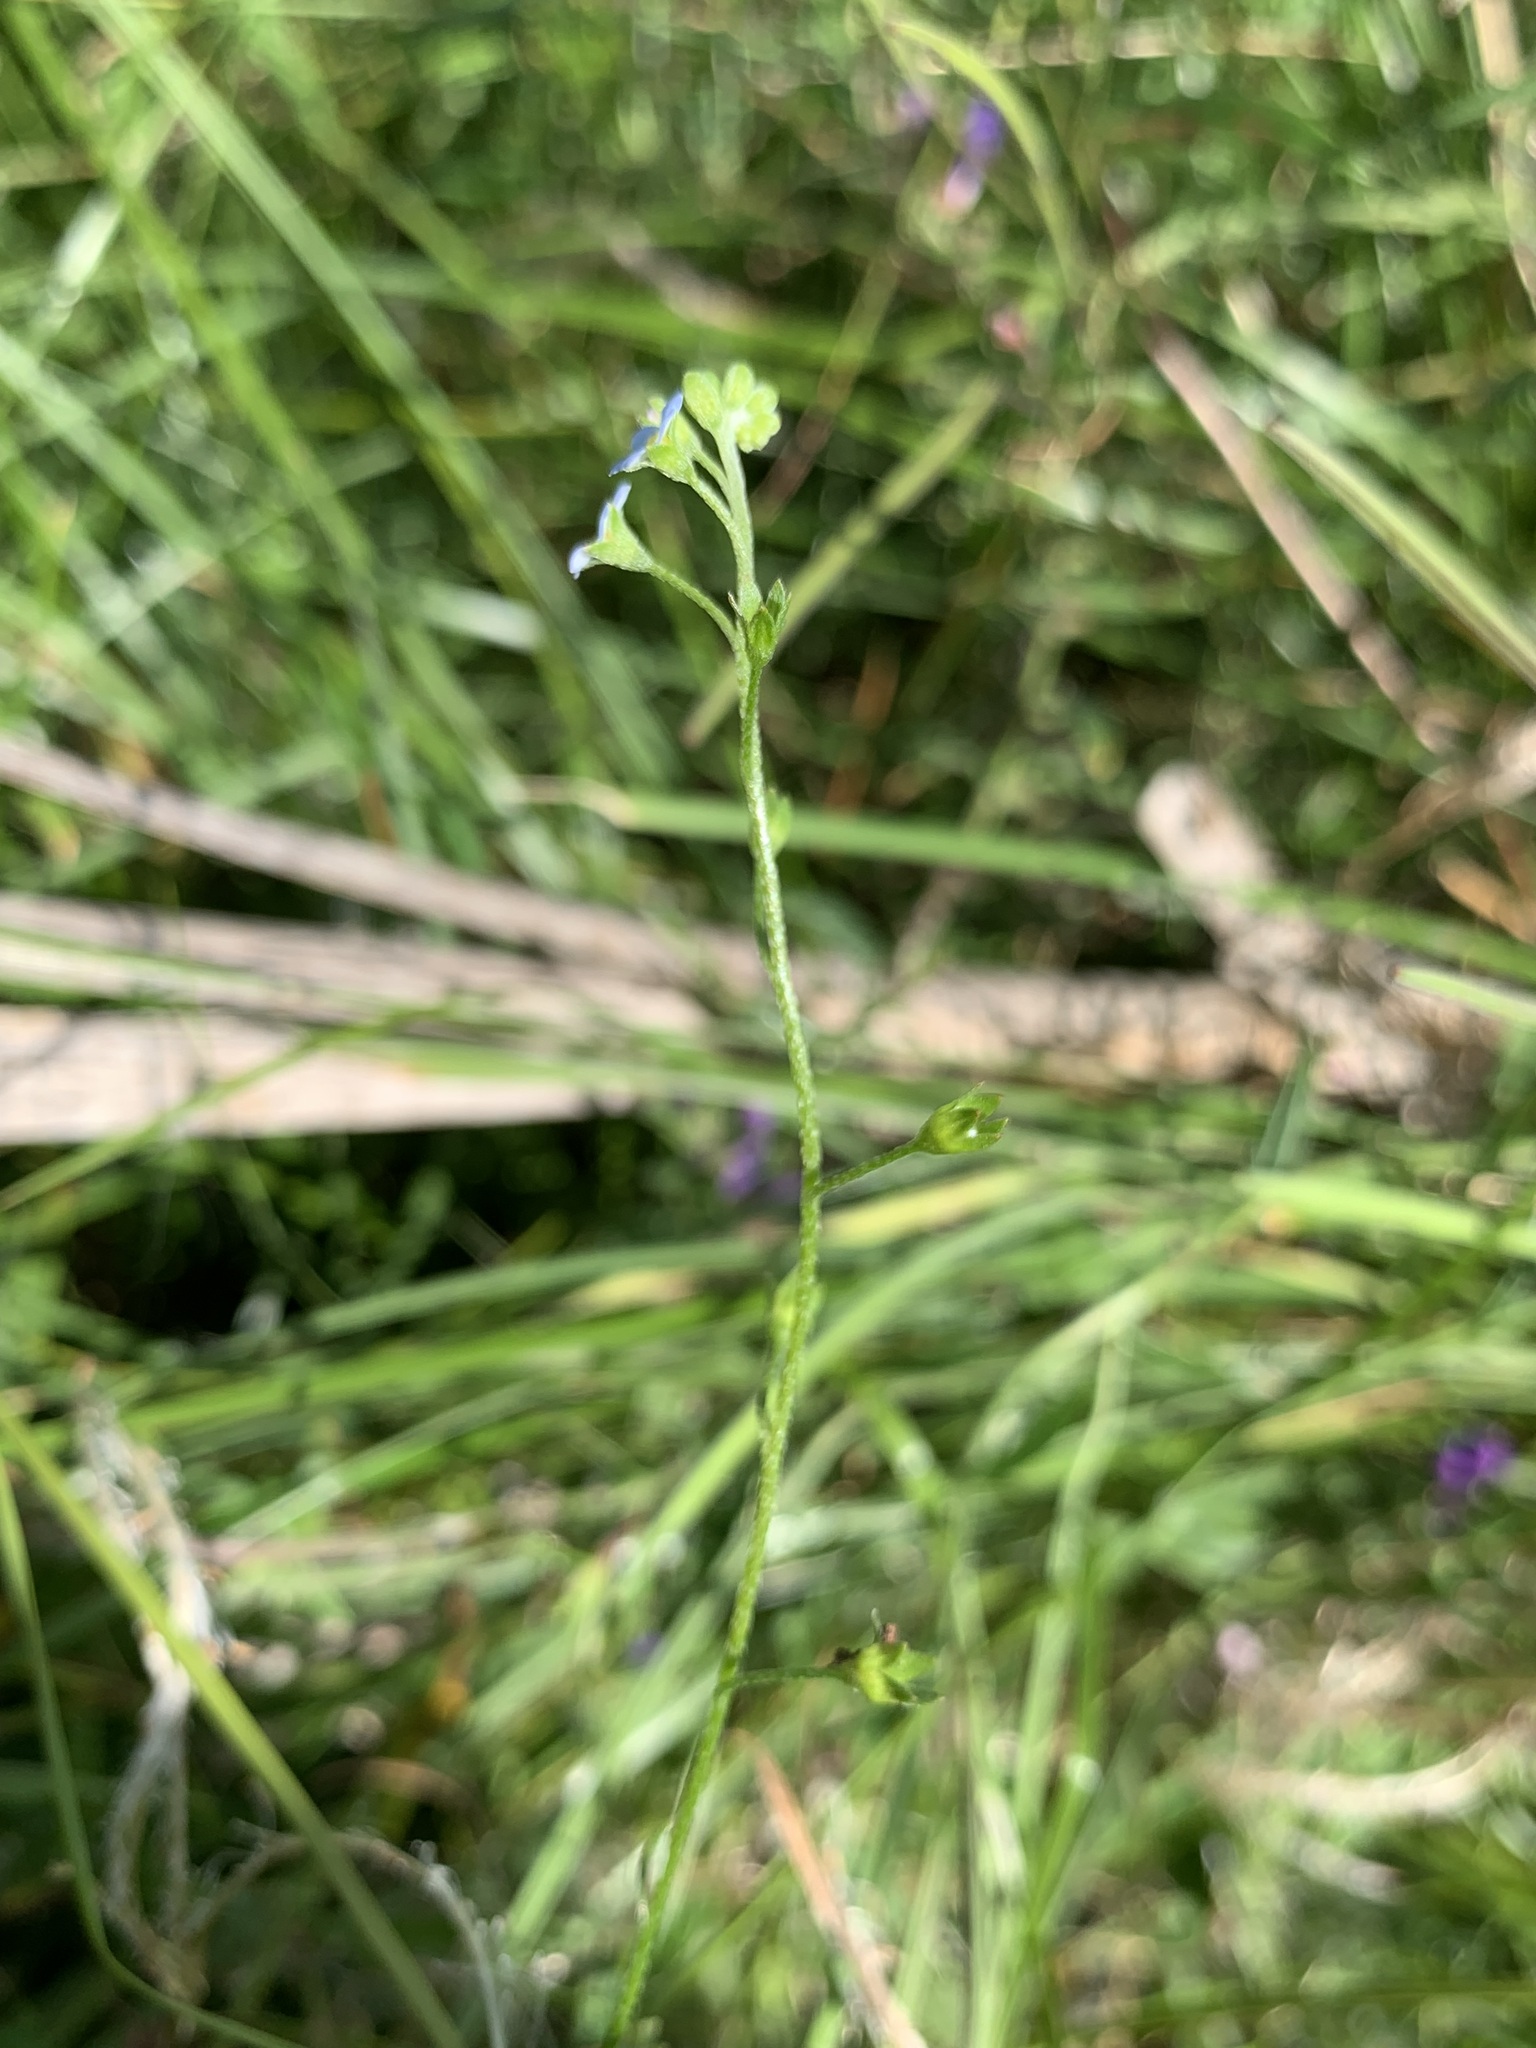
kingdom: Plantae
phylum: Tracheophyta
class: Magnoliopsida
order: Boraginales
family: Boraginaceae
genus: Myosotis
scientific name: Myosotis laxa
